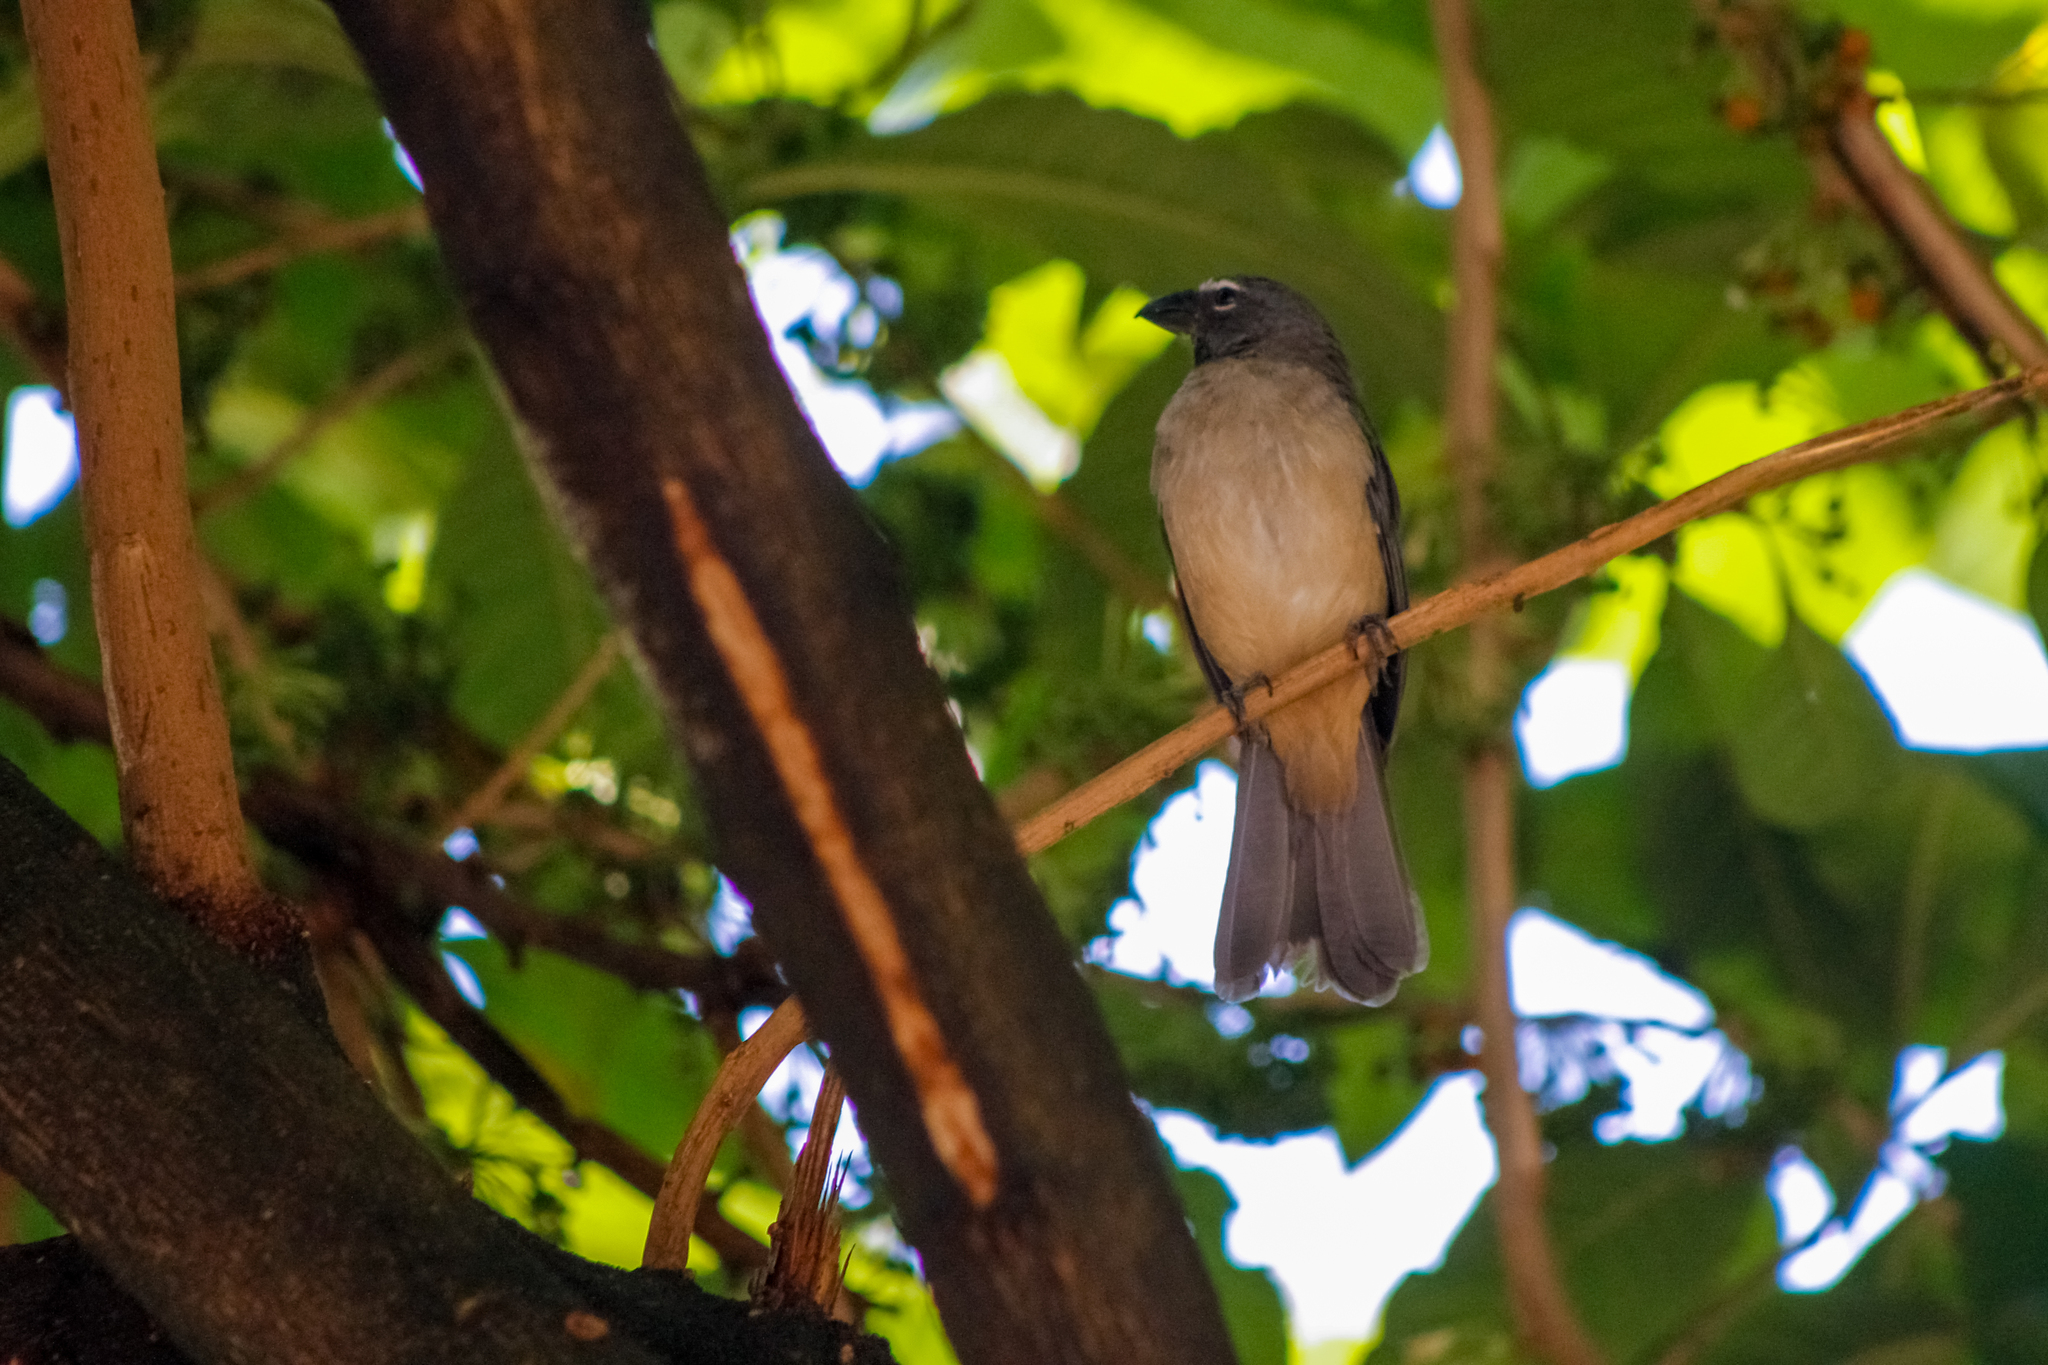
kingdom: Animalia
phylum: Chordata
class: Aves
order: Passeriformes
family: Thraupidae
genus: Saltator
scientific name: Saltator olivascens
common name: Caribbean grey saltator
